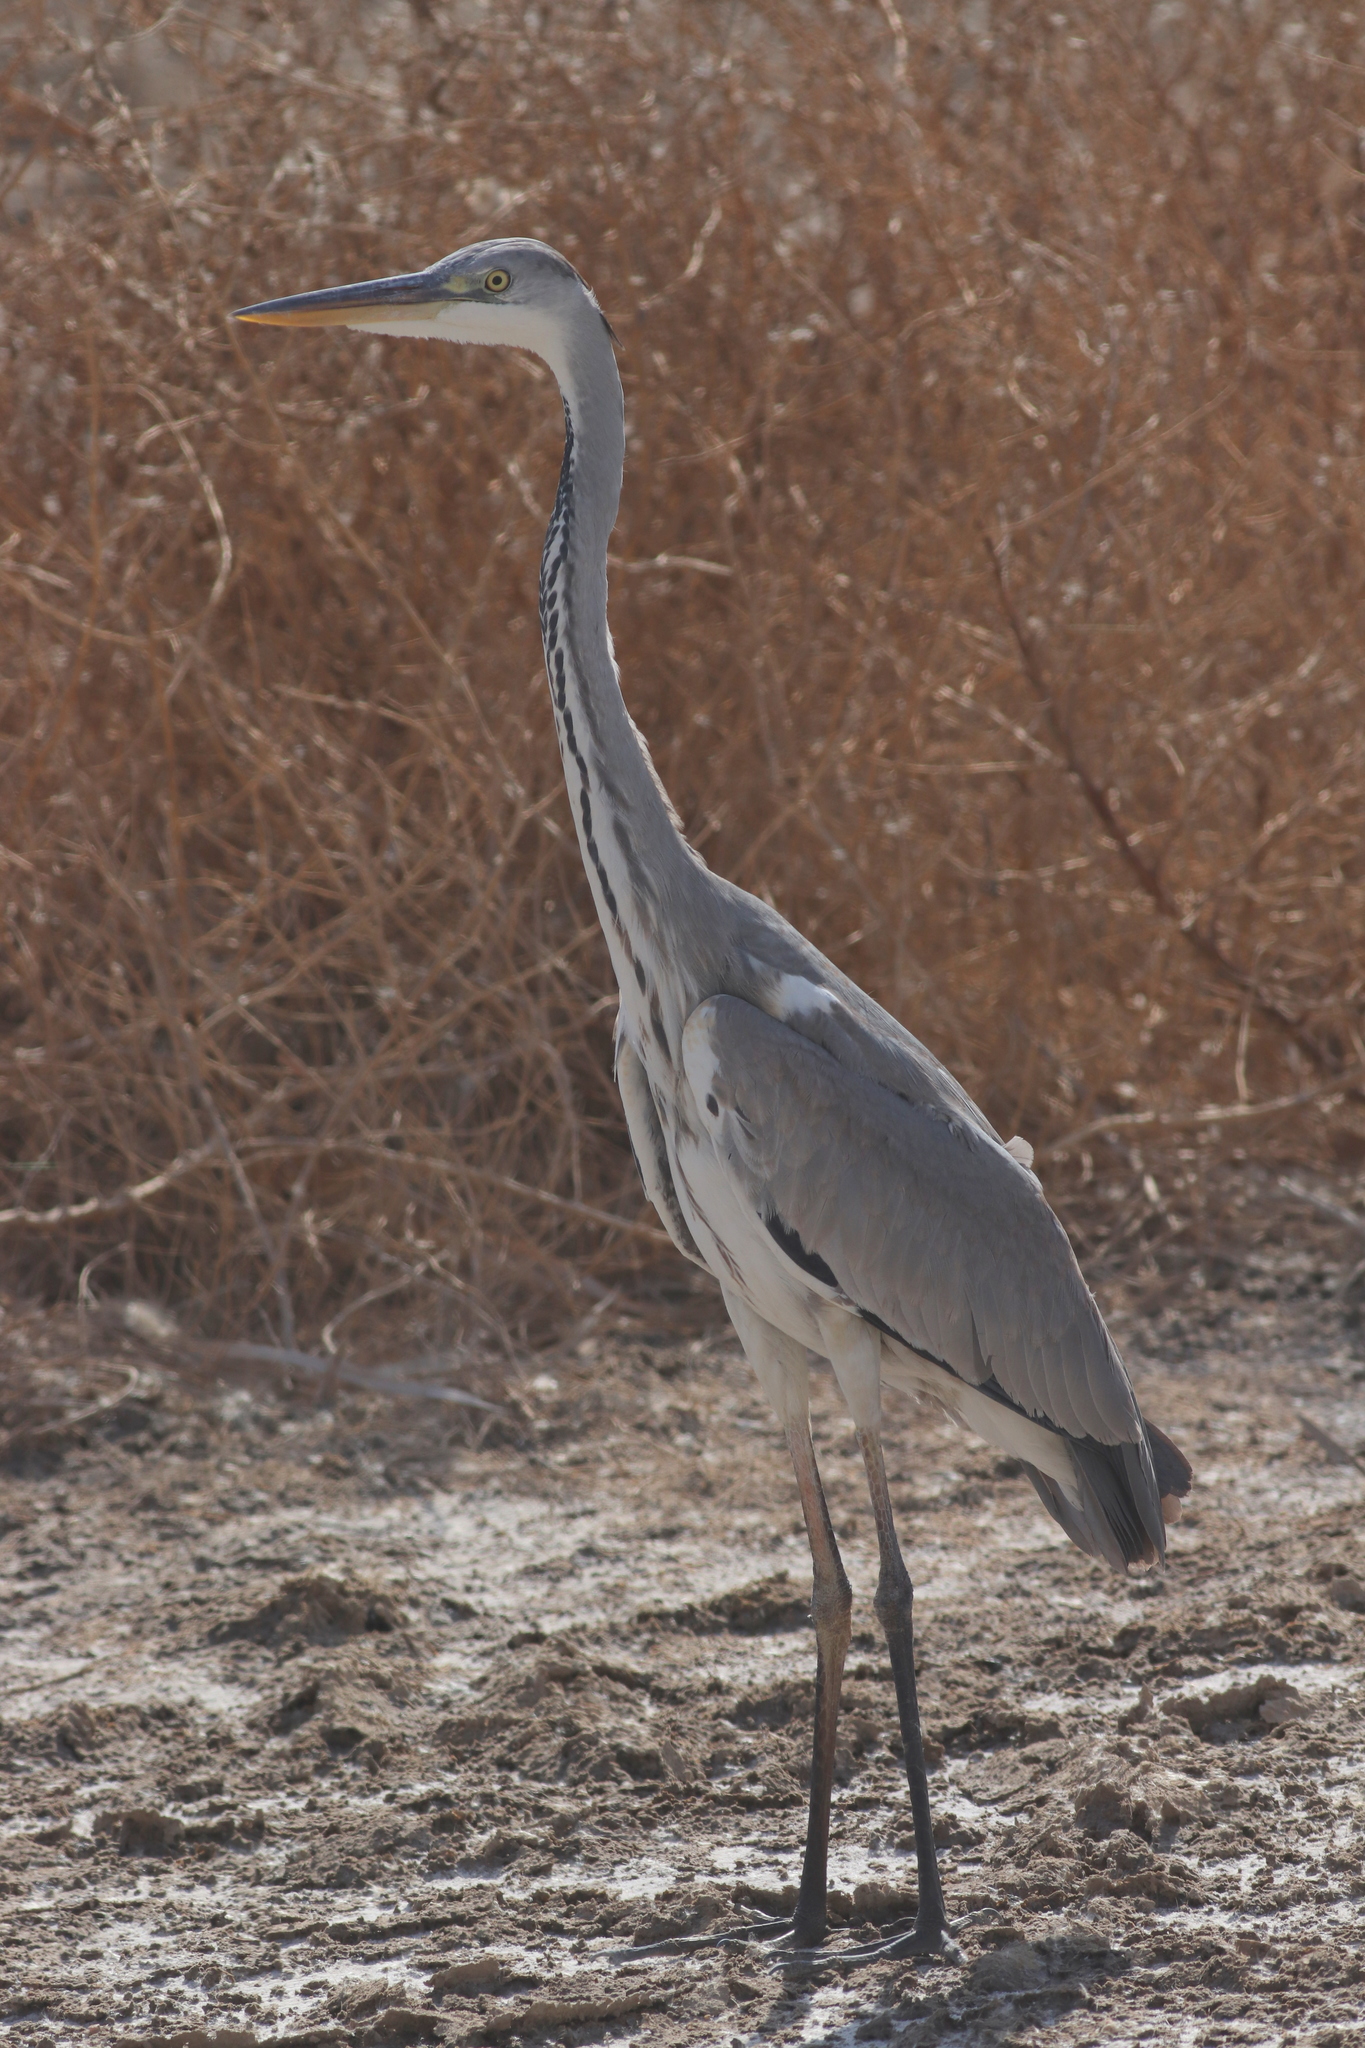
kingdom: Animalia
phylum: Chordata
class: Aves
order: Pelecaniformes
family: Ardeidae
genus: Ardea
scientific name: Ardea cinerea
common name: Grey heron
